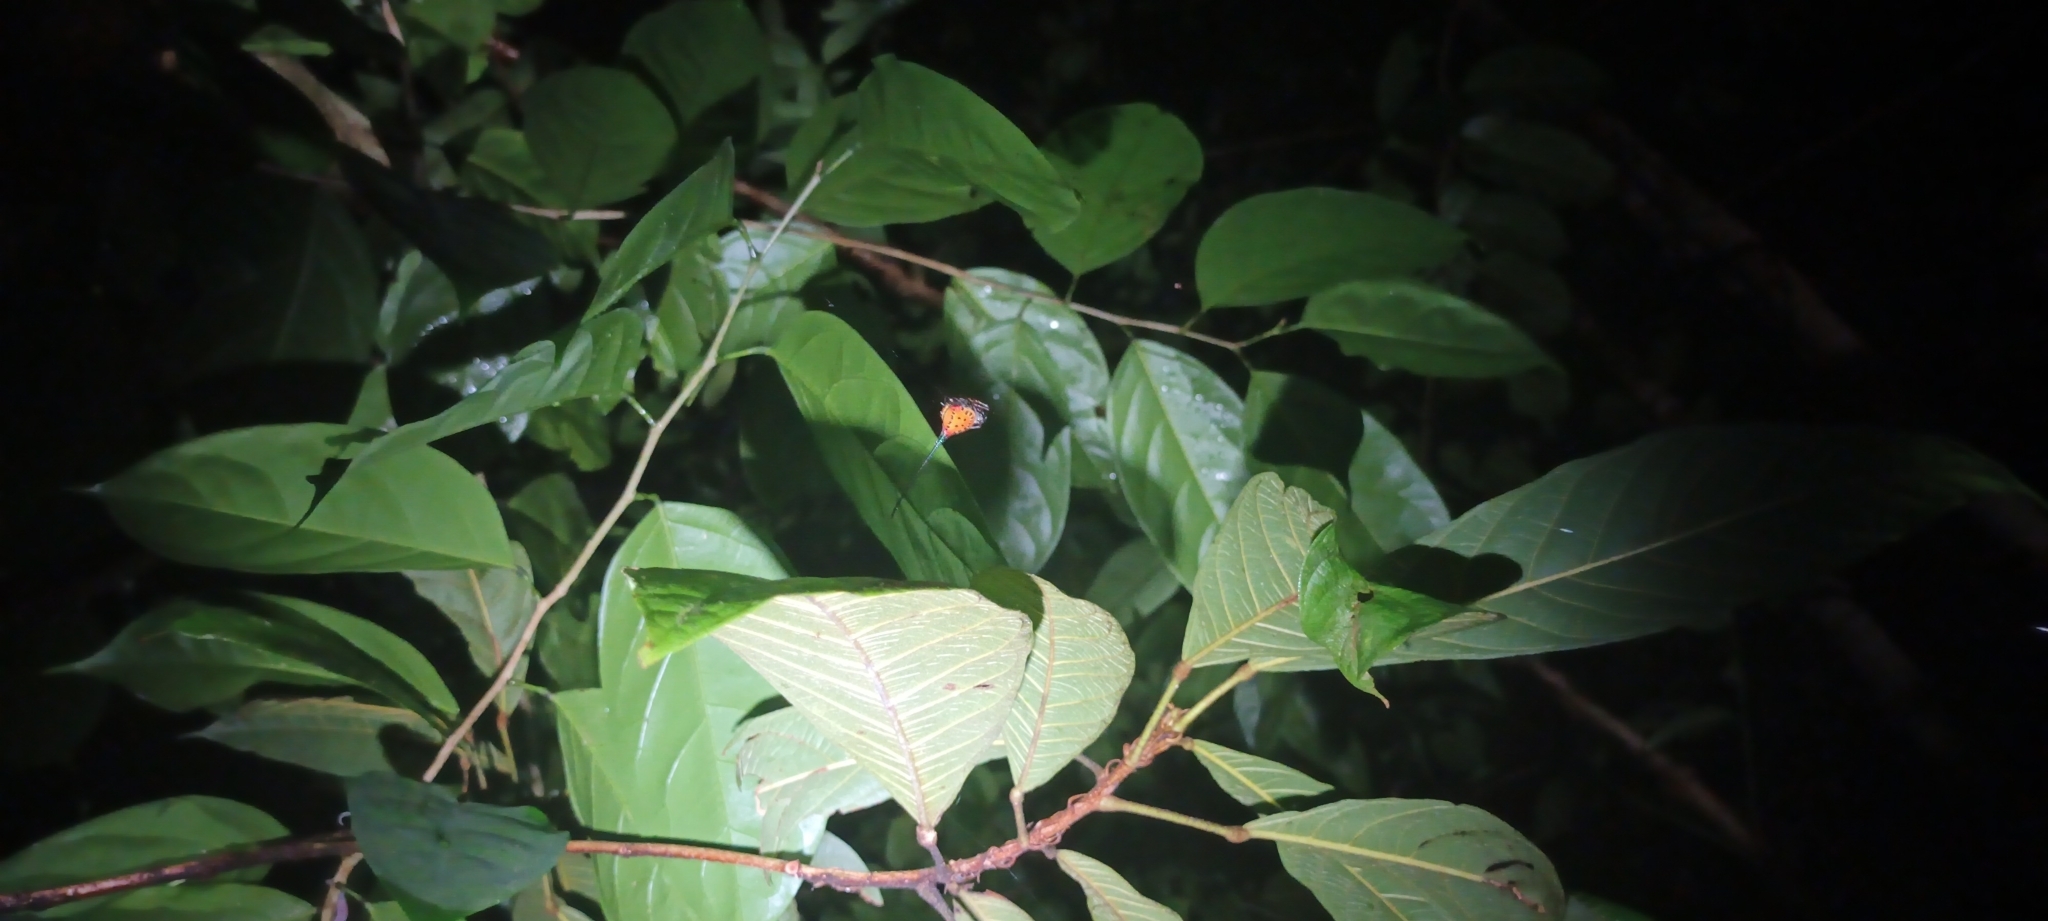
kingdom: Animalia
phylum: Arthropoda
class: Arachnida
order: Araneae
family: Araneidae
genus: Macracantha
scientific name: Macracantha arcuata
